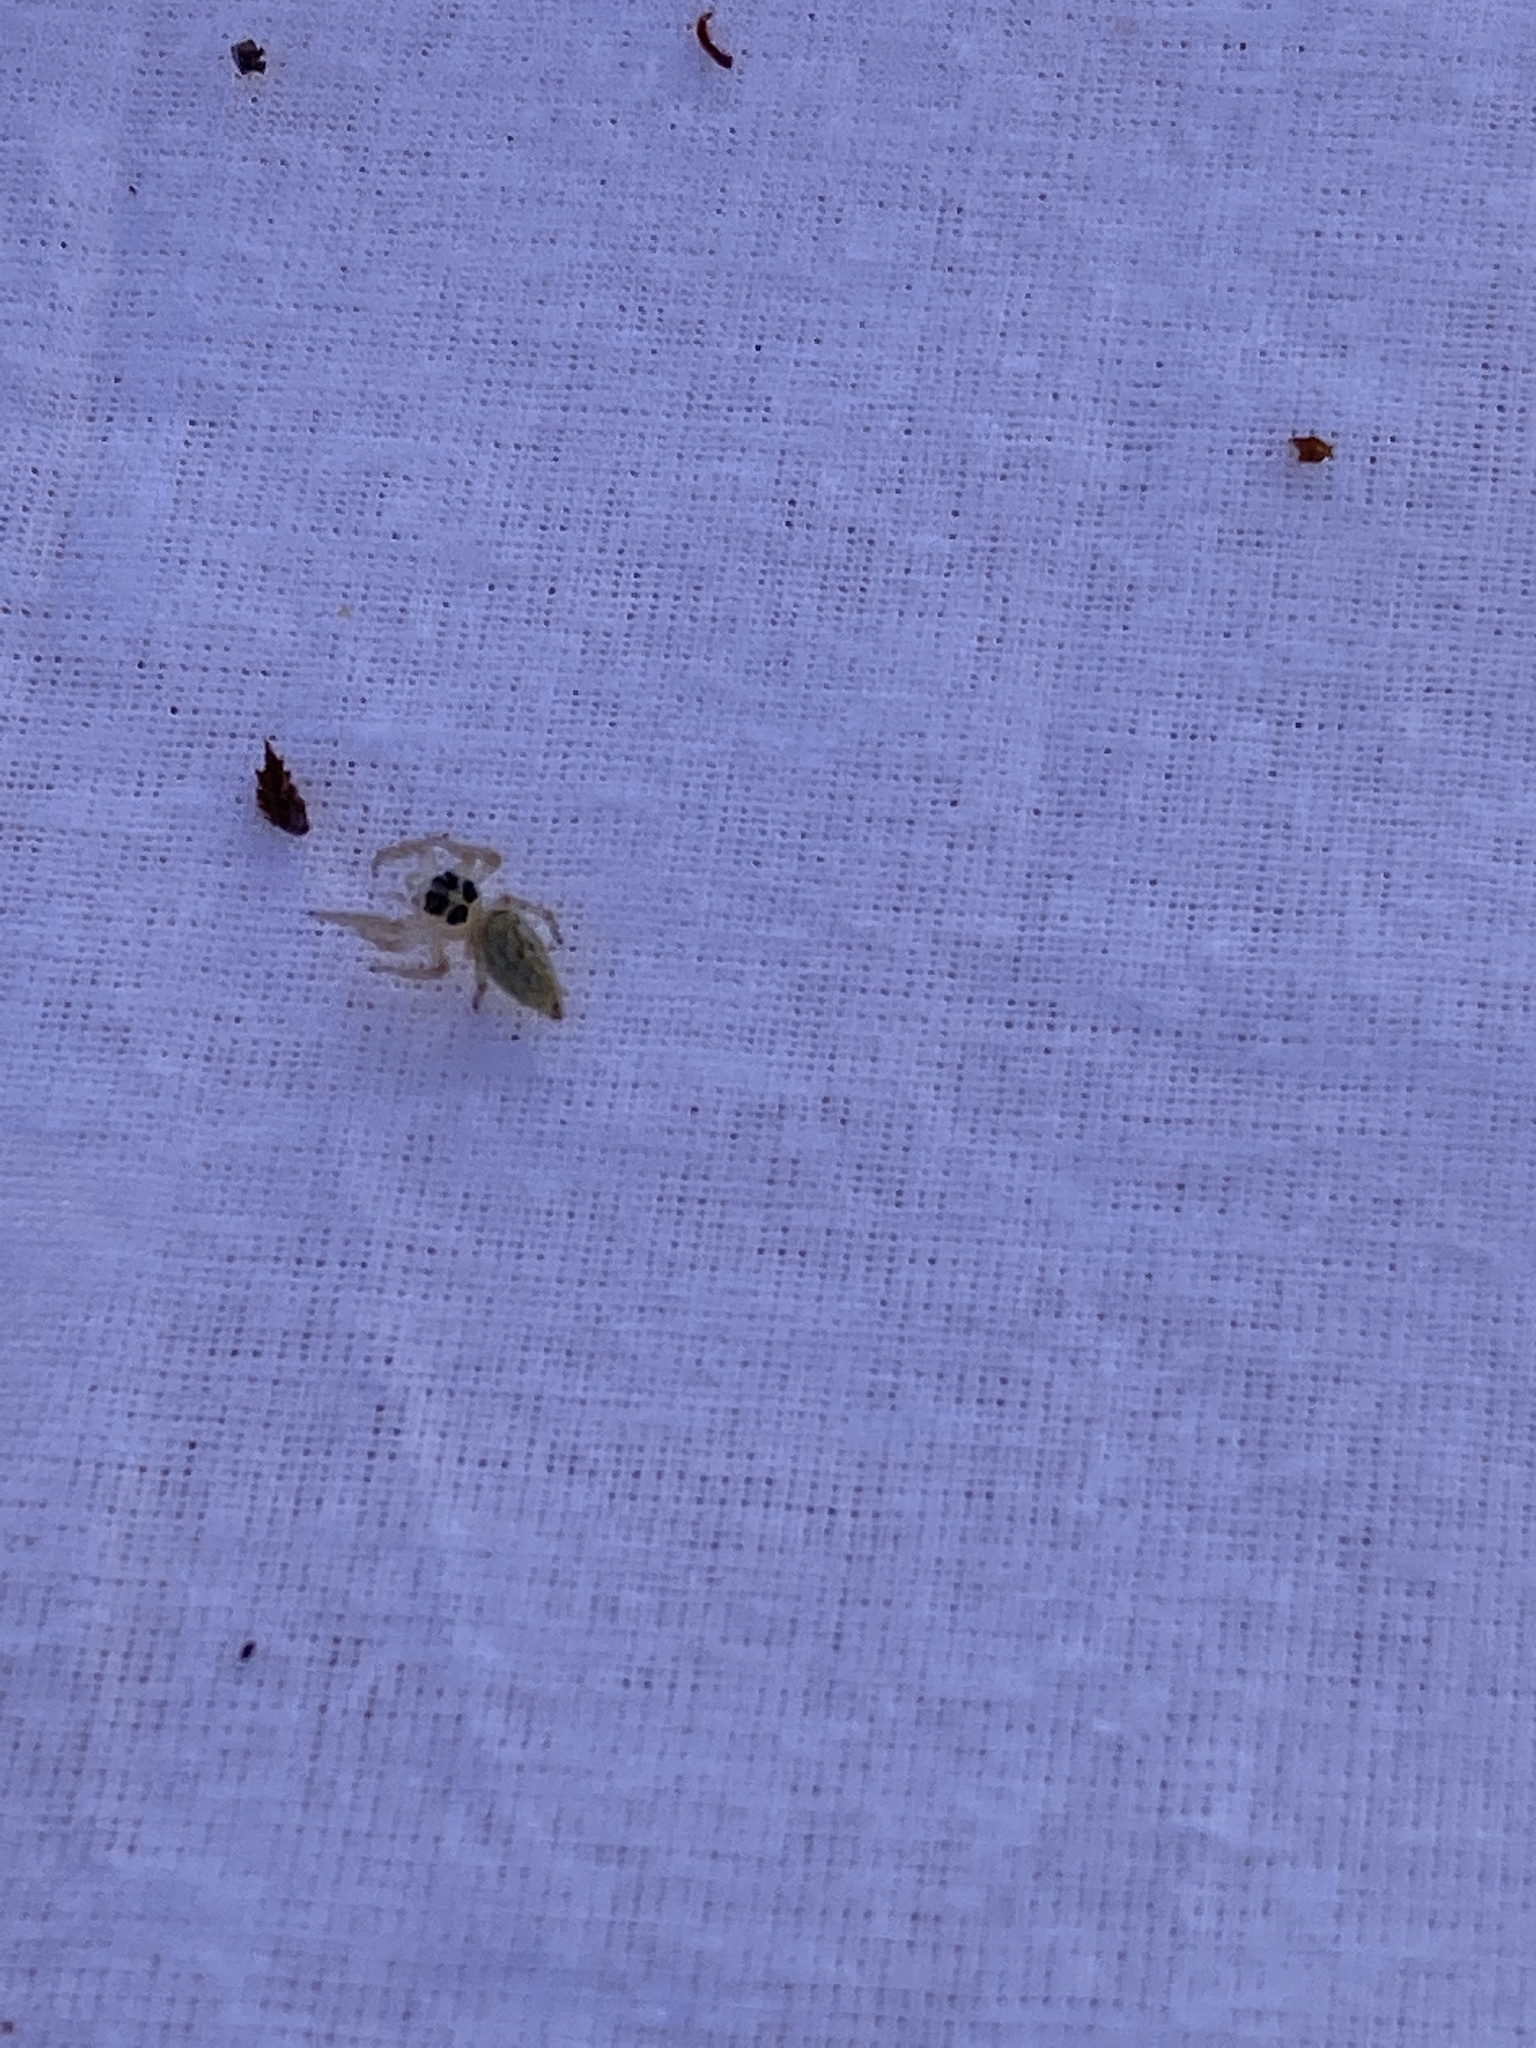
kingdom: Animalia
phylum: Arthropoda
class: Arachnida
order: Araneae
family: Salticidae
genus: Colonus
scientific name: Colonus hesperus
